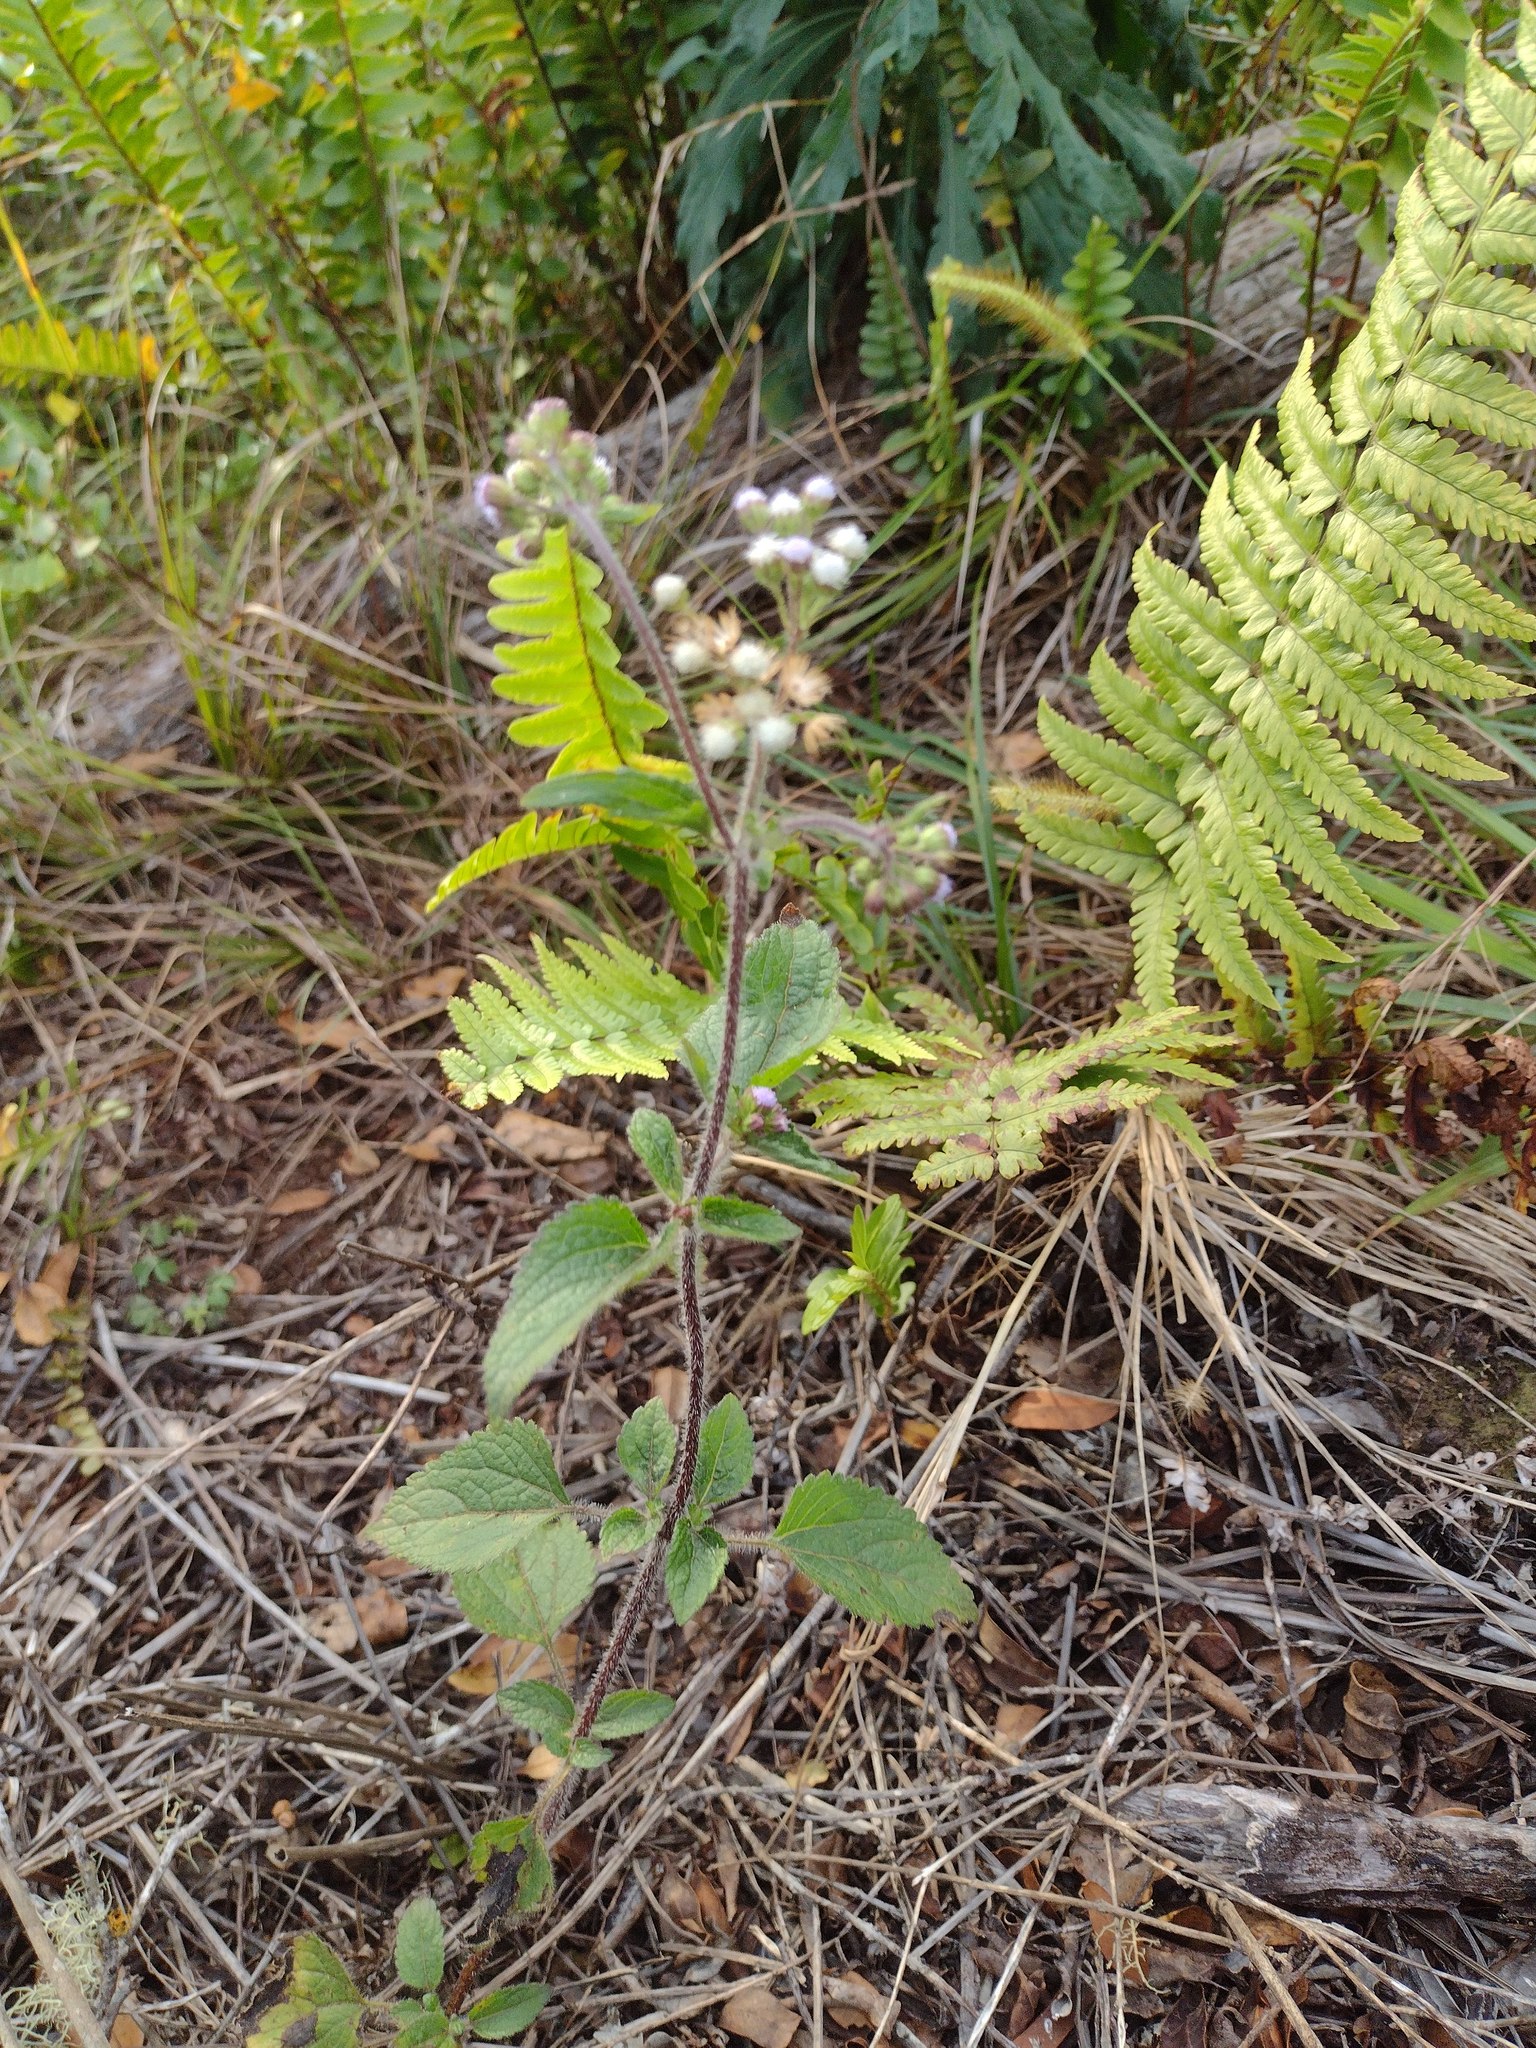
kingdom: Plantae
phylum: Tracheophyta
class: Magnoliopsida
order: Asterales
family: Asteraceae
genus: Ageratum
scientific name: Ageratum conyzoides
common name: Tropical whiteweed
